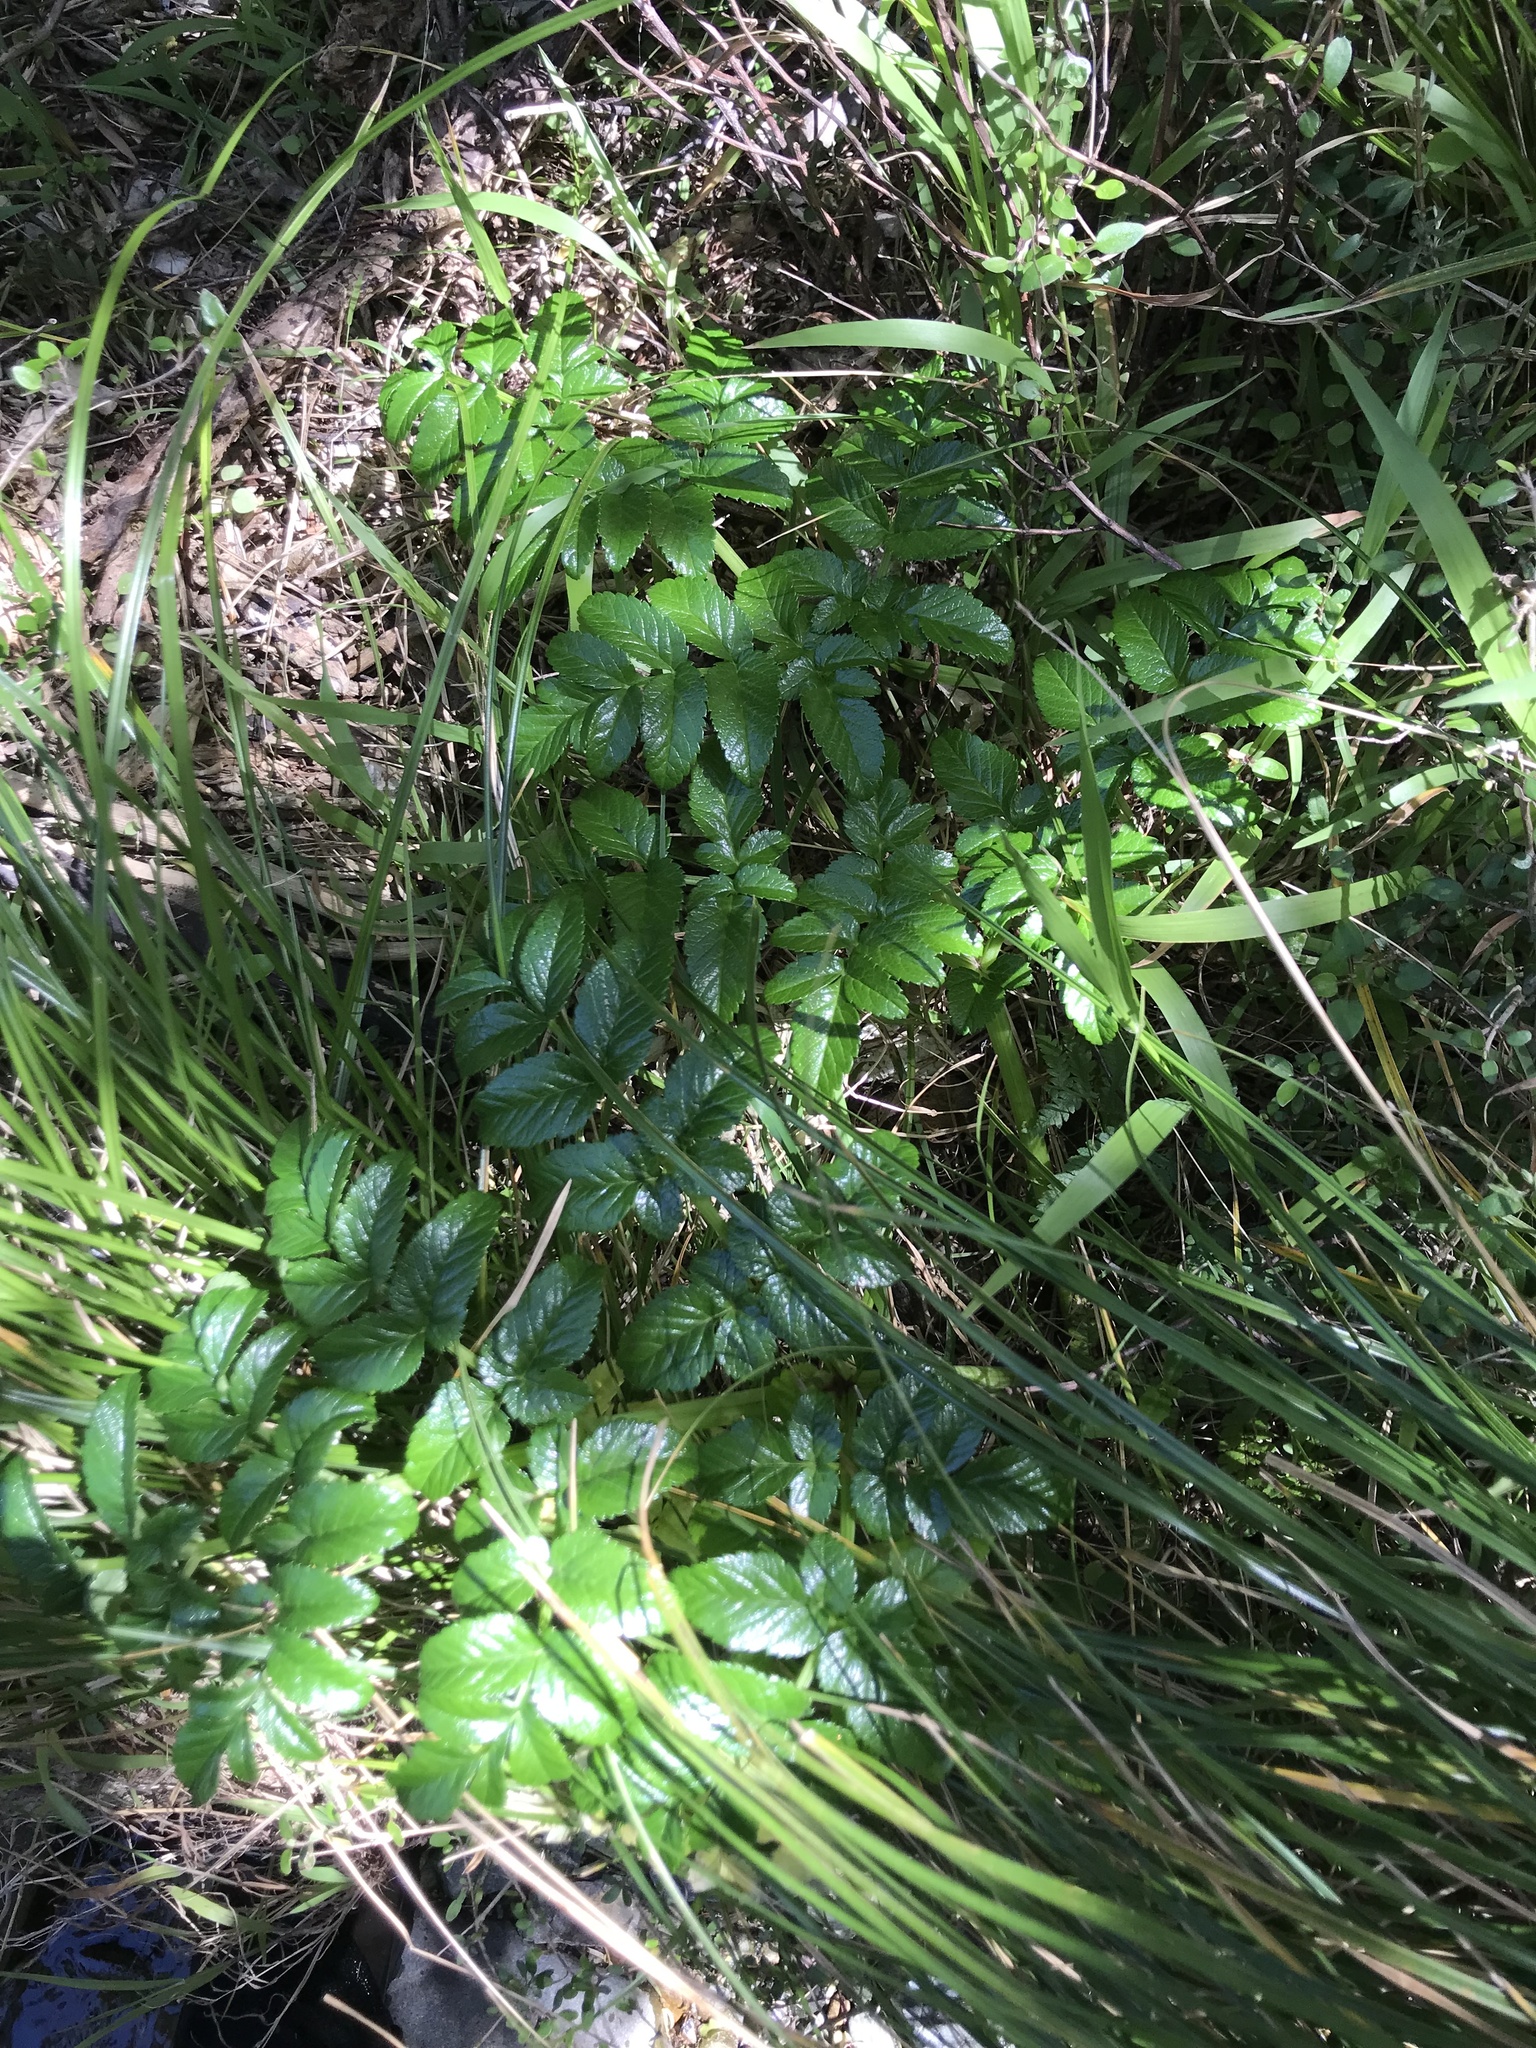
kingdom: Plantae
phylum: Tracheophyta
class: Magnoliopsida
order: Apiales
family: Apiaceae
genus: Angelica
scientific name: Angelica pachycarpa
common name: Portuguese angelica
